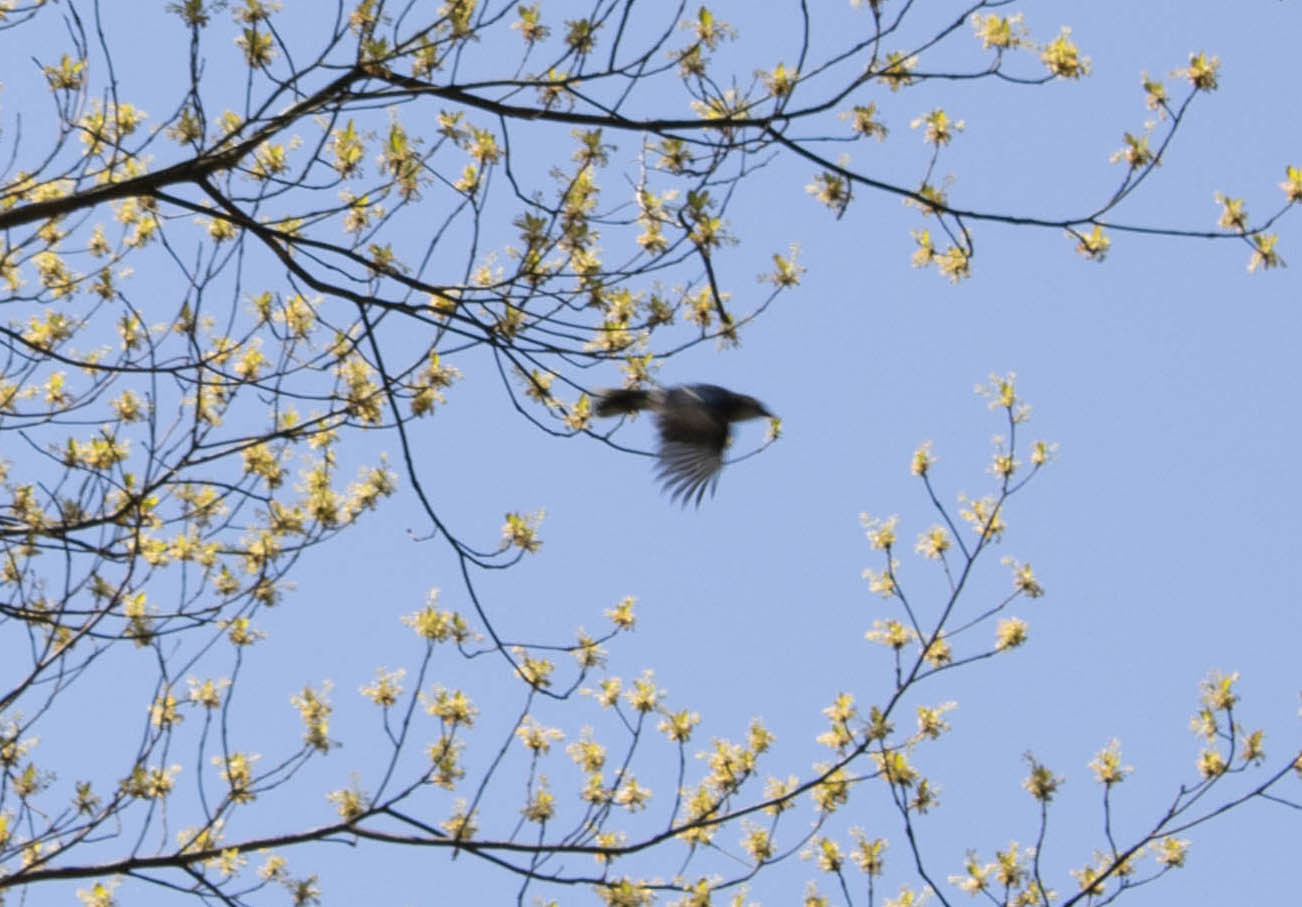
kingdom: Animalia
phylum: Chordata
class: Aves
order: Passeriformes
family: Corvidae
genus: Cyanocitta
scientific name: Cyanocitta cristata
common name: Blue jay
